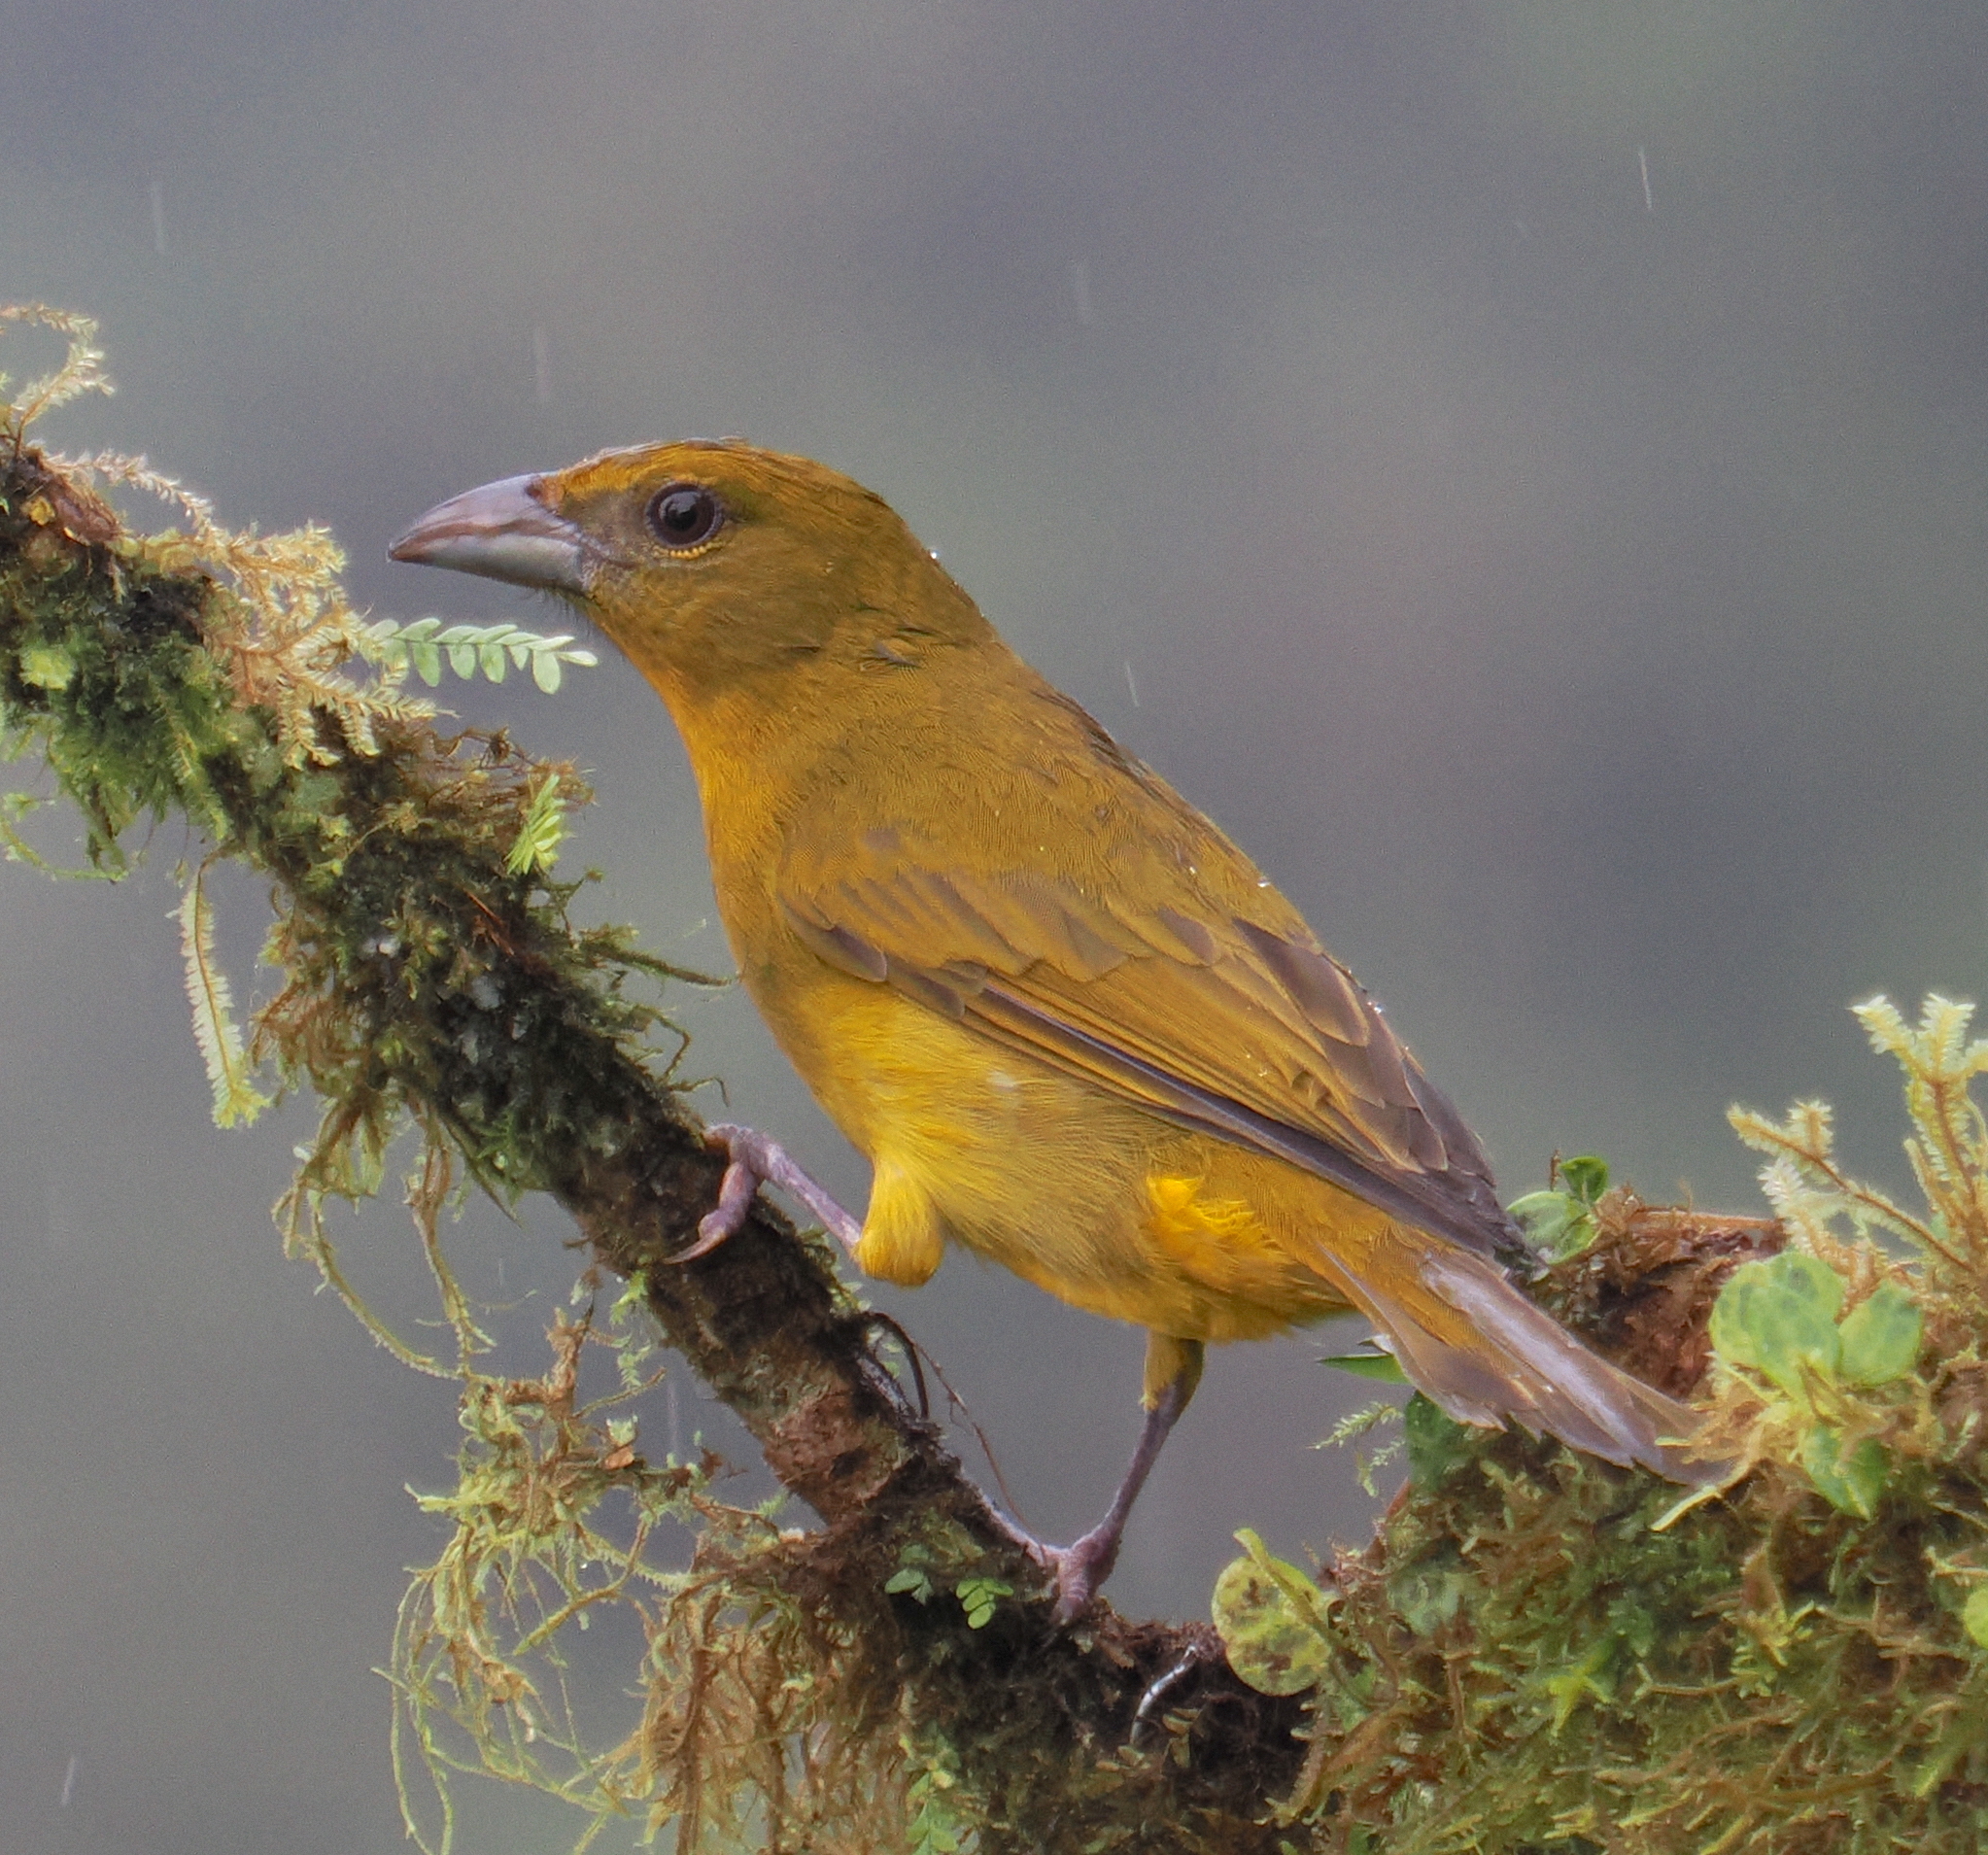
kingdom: Animalia
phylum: Chordata
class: Aves
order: Passeriformes
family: Cardinalidae
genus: Piranga
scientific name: Piranga lutea
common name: Tooth-billed tanager
